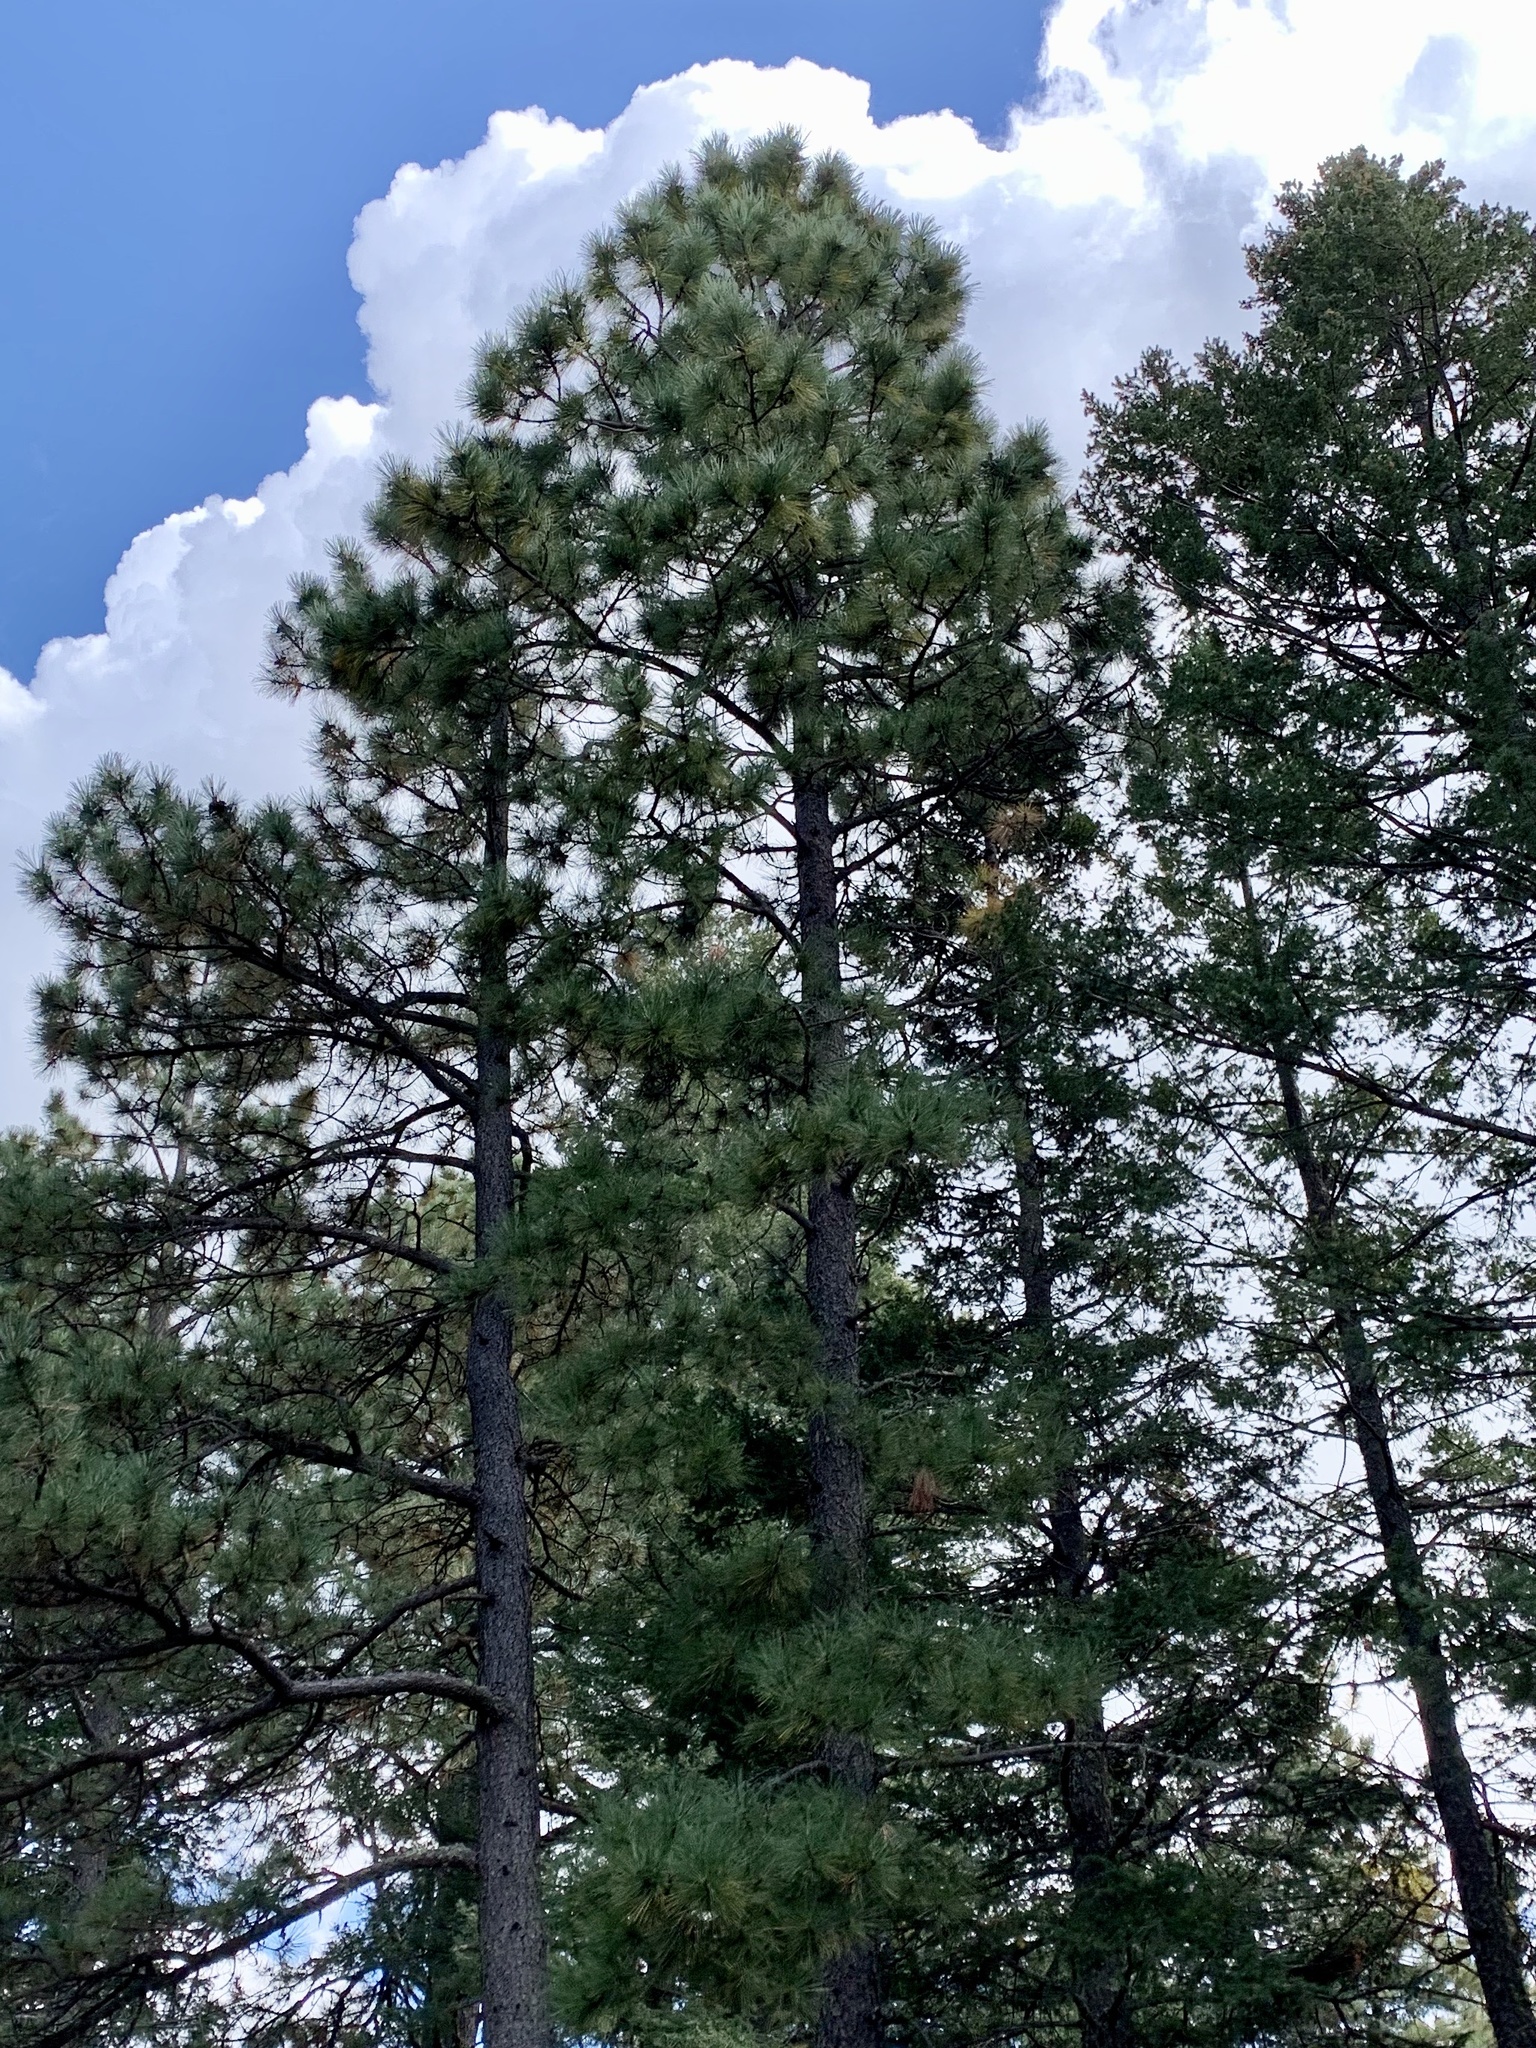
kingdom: Plantae
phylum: Tracheophyta
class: Pinopsida
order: Pinales
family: Pinaceae
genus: Pinus
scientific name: Pinus ponderosa
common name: Western yellow-pine
